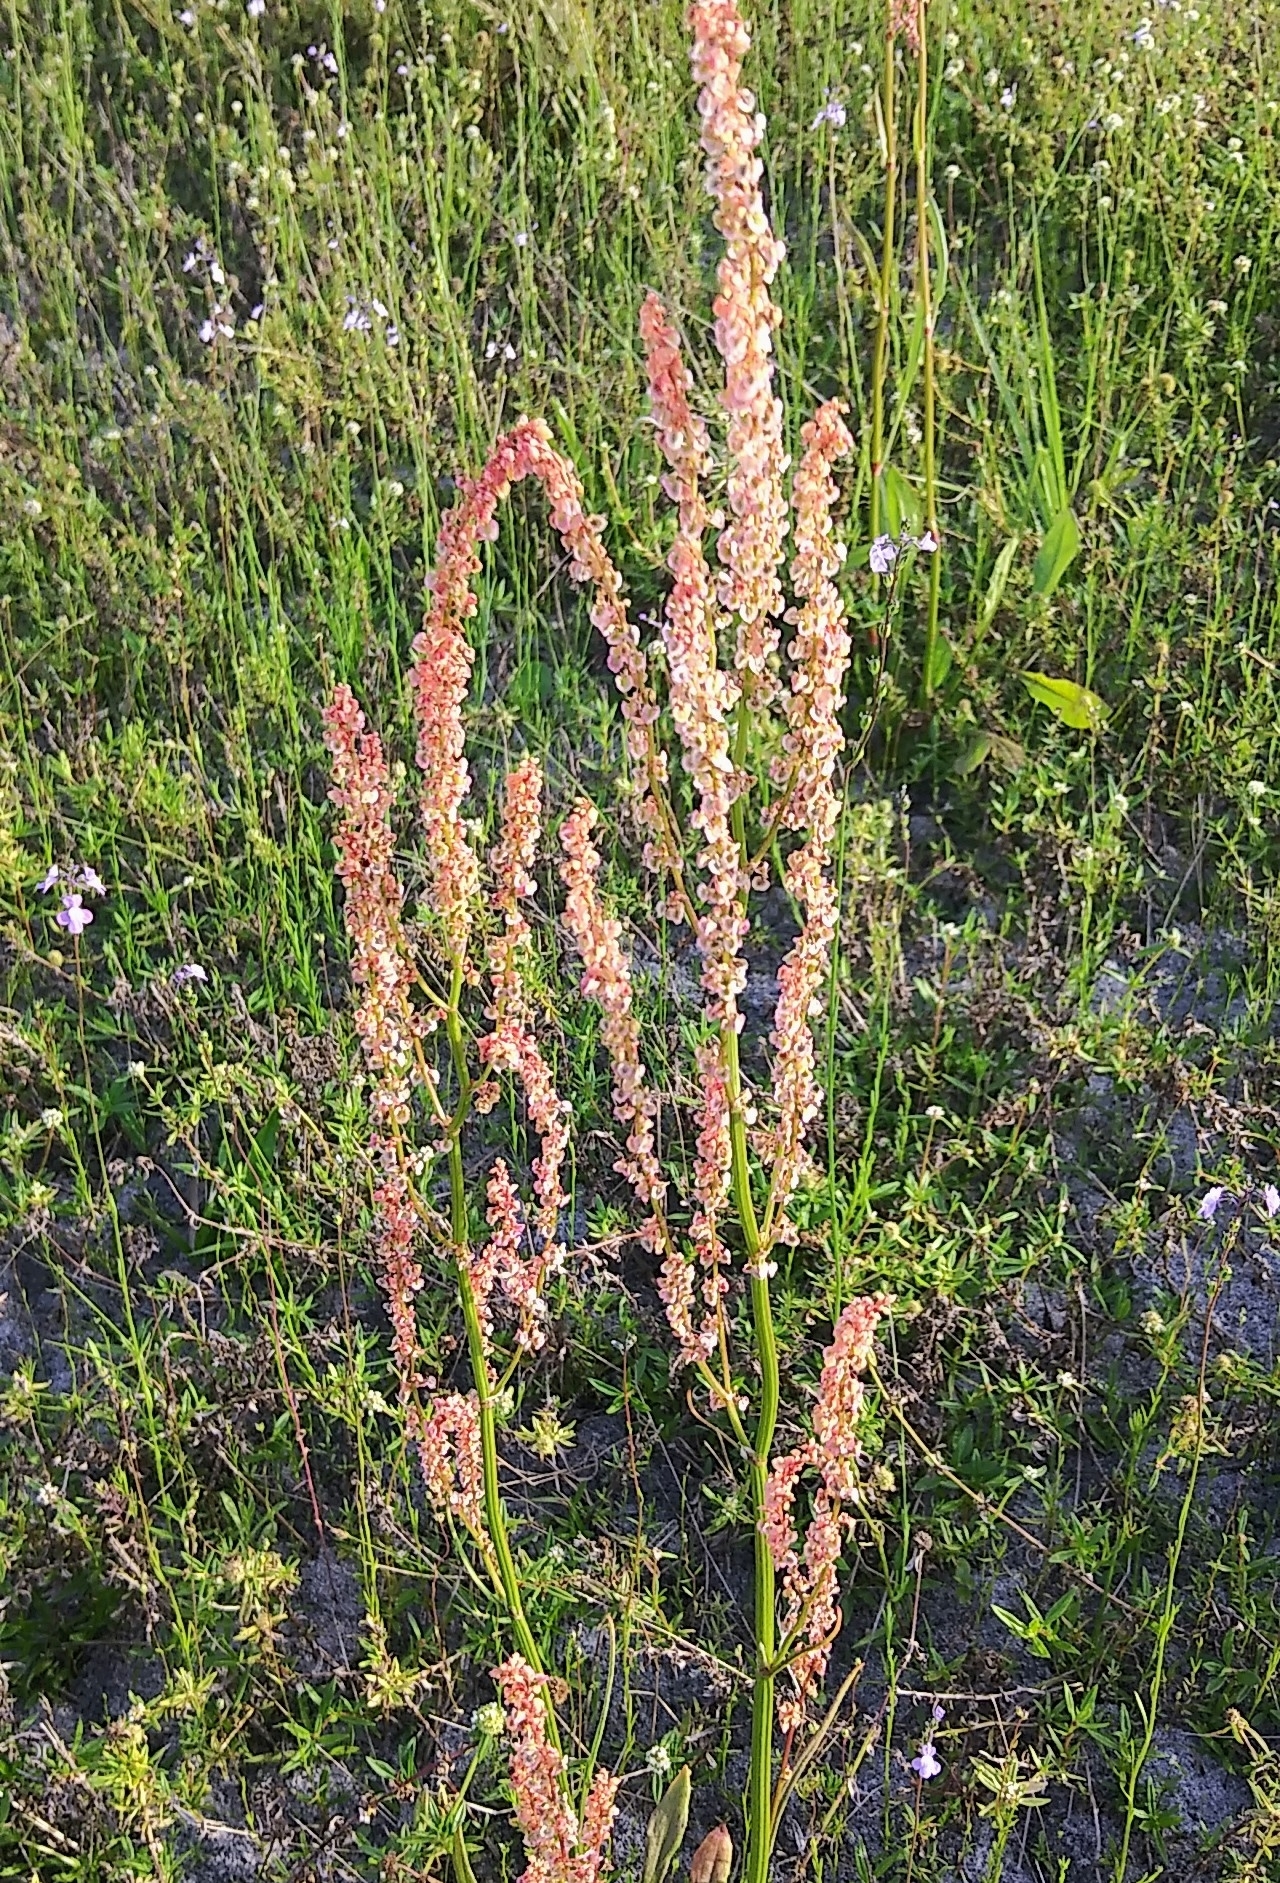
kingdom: Plantae
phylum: Tracheophyta
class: Magnoliopsida
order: Caryophyllales
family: Polygonaceae
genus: Rumex
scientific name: Rumex hastatulus
